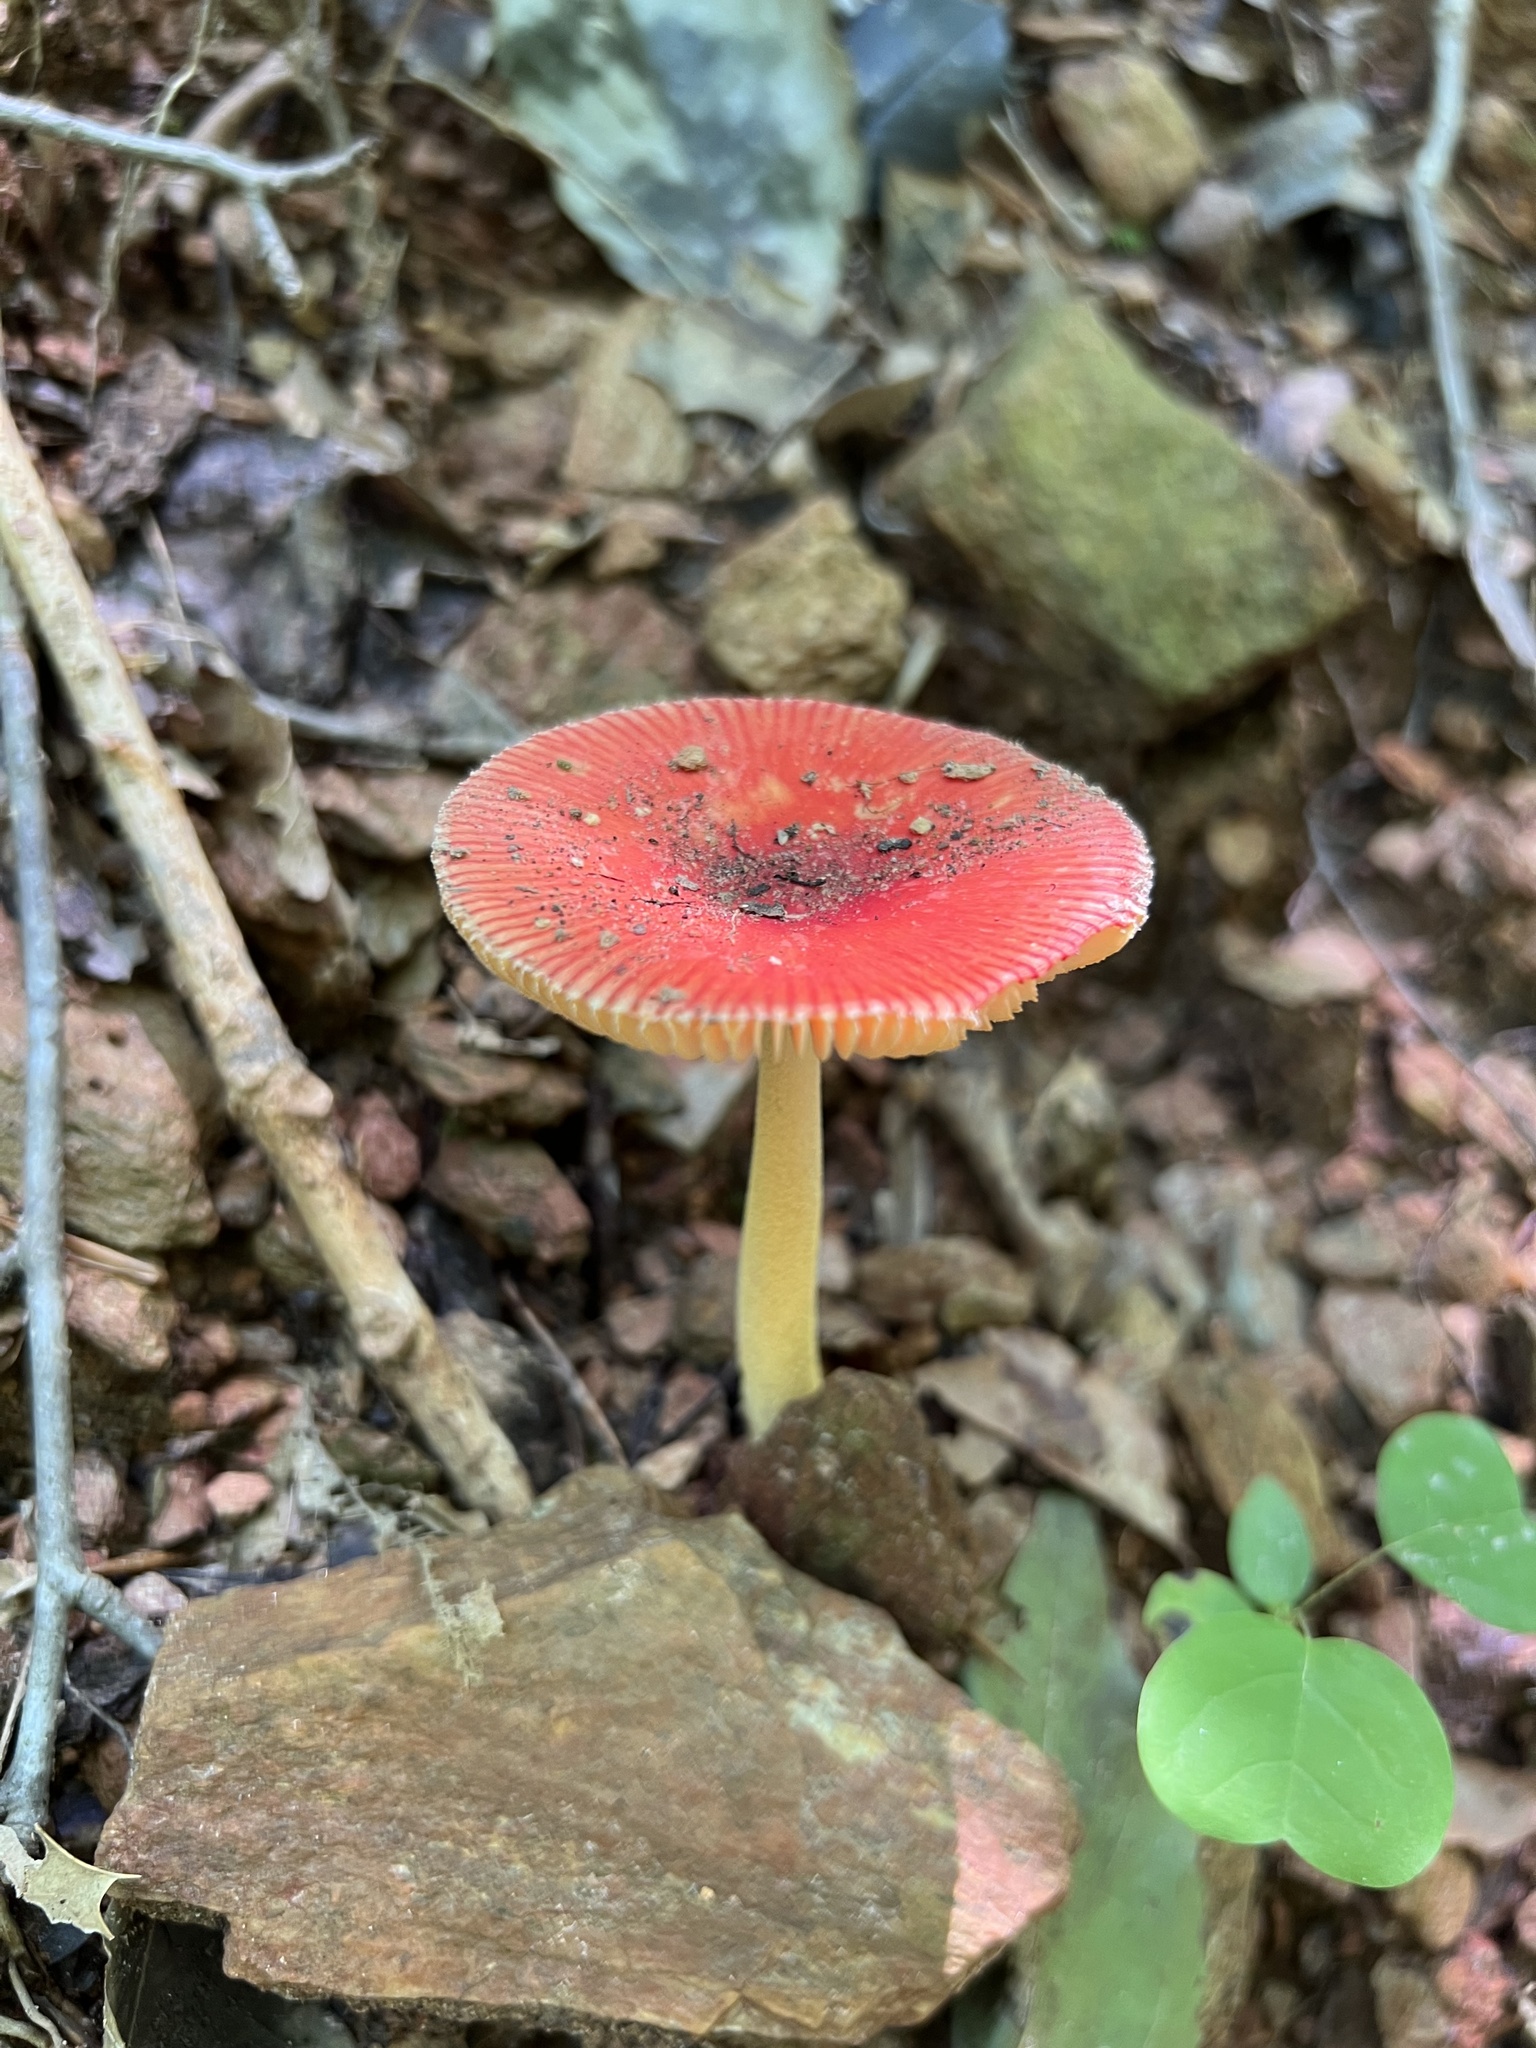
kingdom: Fungi
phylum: Basidiomycota
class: Agaricomycetes
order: Agaricales
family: Amanitaceae
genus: Amanita
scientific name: Amanita parcivolvata
